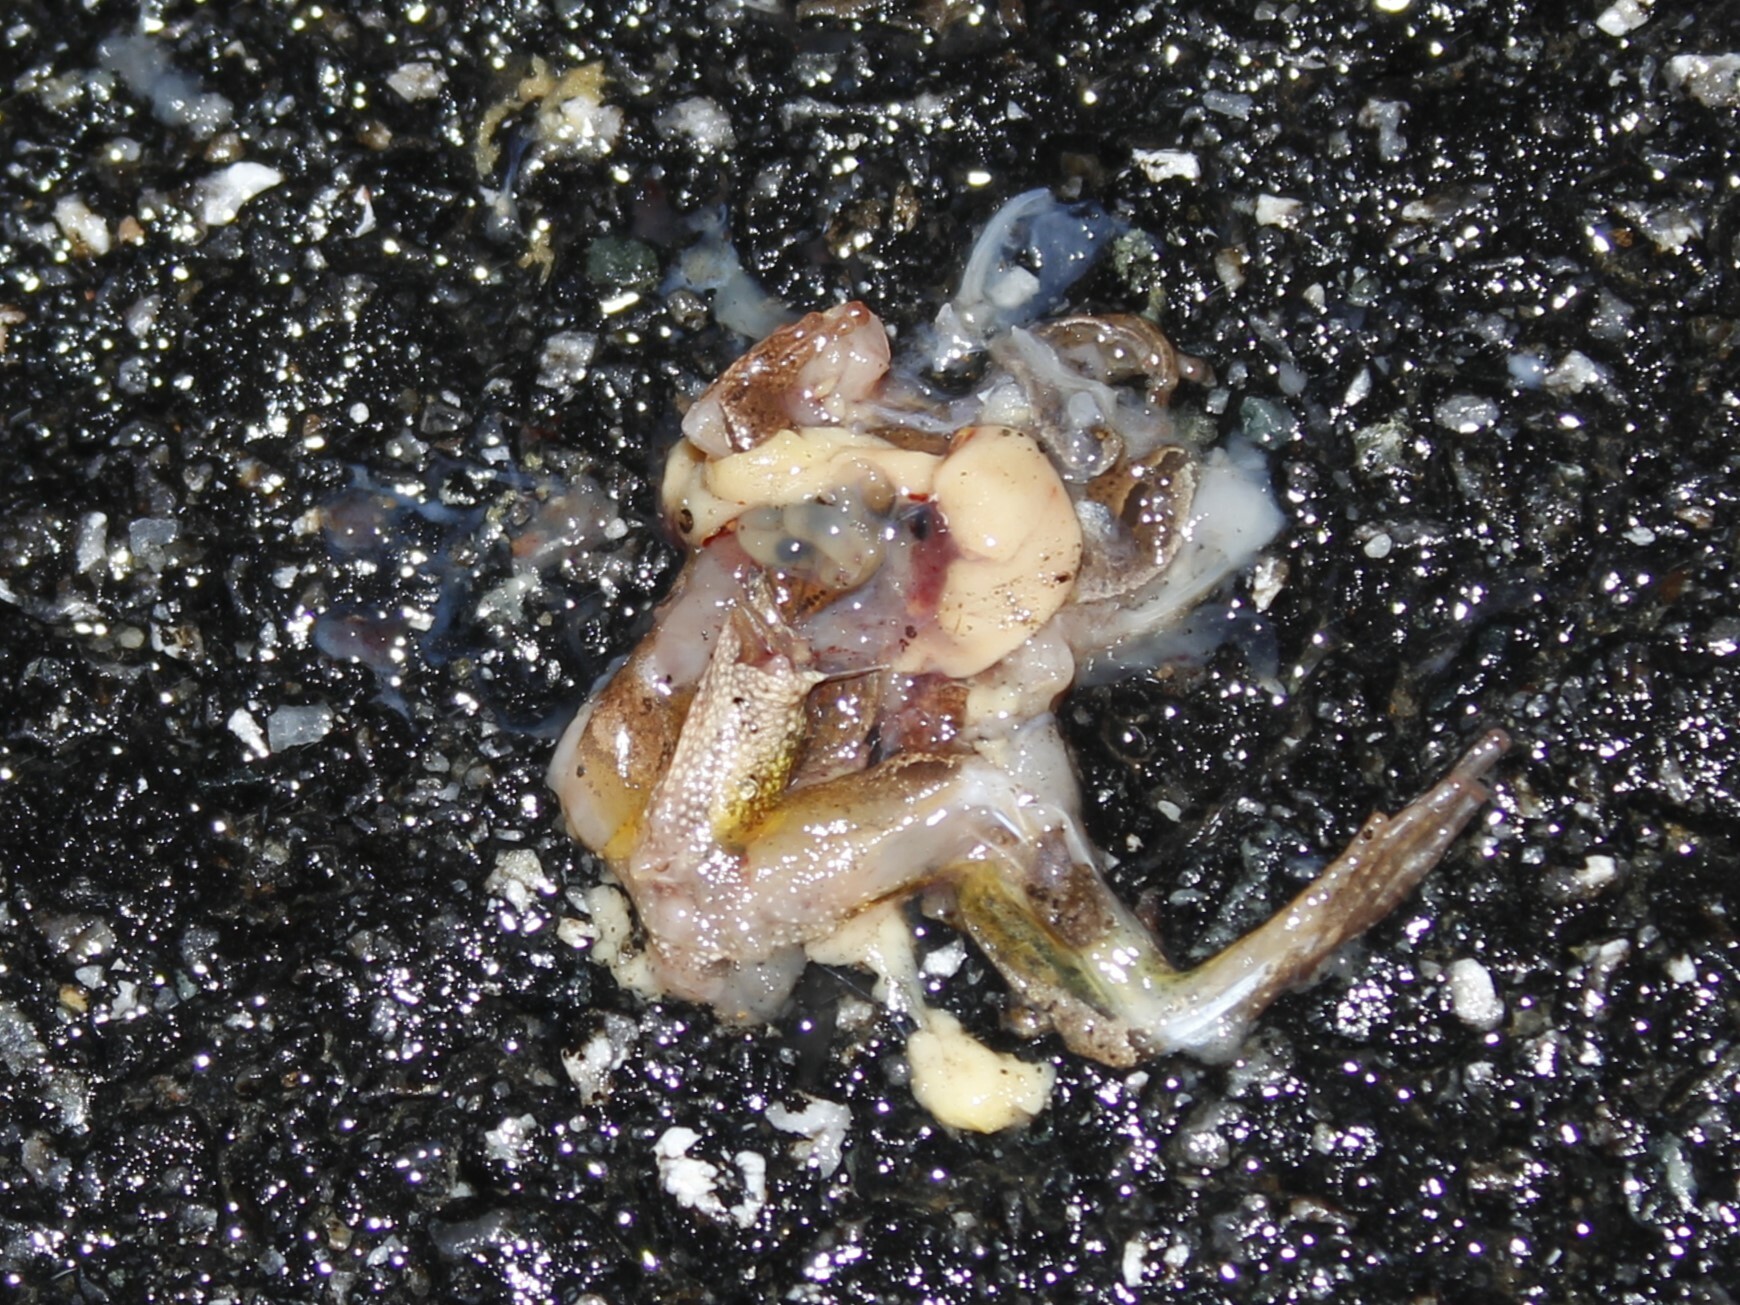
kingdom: Animalia
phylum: Chordata
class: Amphibia
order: Anura
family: Hylidae
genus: Pseudacris
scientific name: Pseudacris crucifer
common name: Spring peeper
